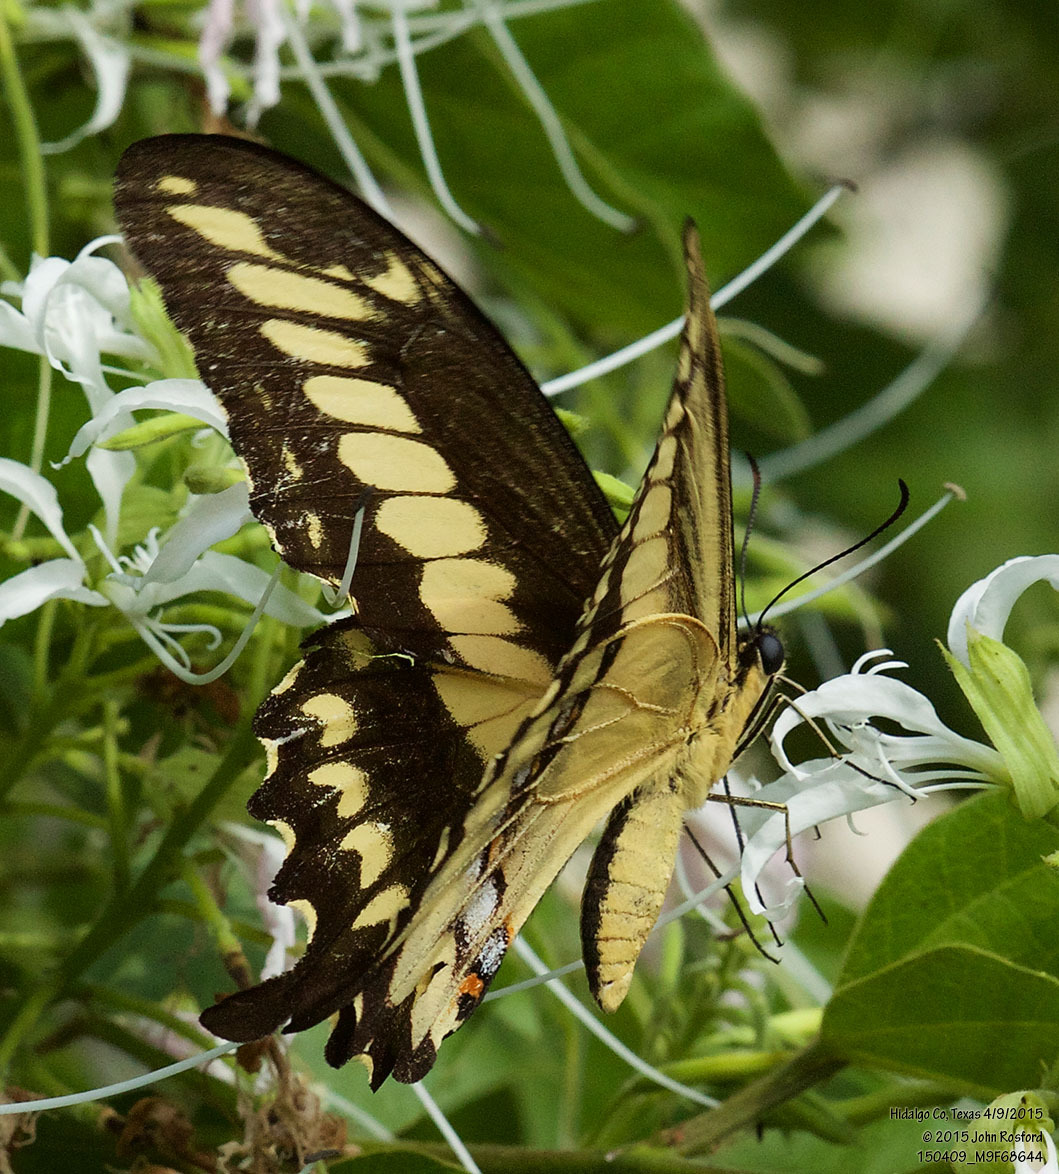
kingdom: Animalia
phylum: Arthropoda
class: Insecta
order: Lepidoptera
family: Papilionidae
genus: Papilio
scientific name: Papilio ornythion
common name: Ornythion swallowtail
